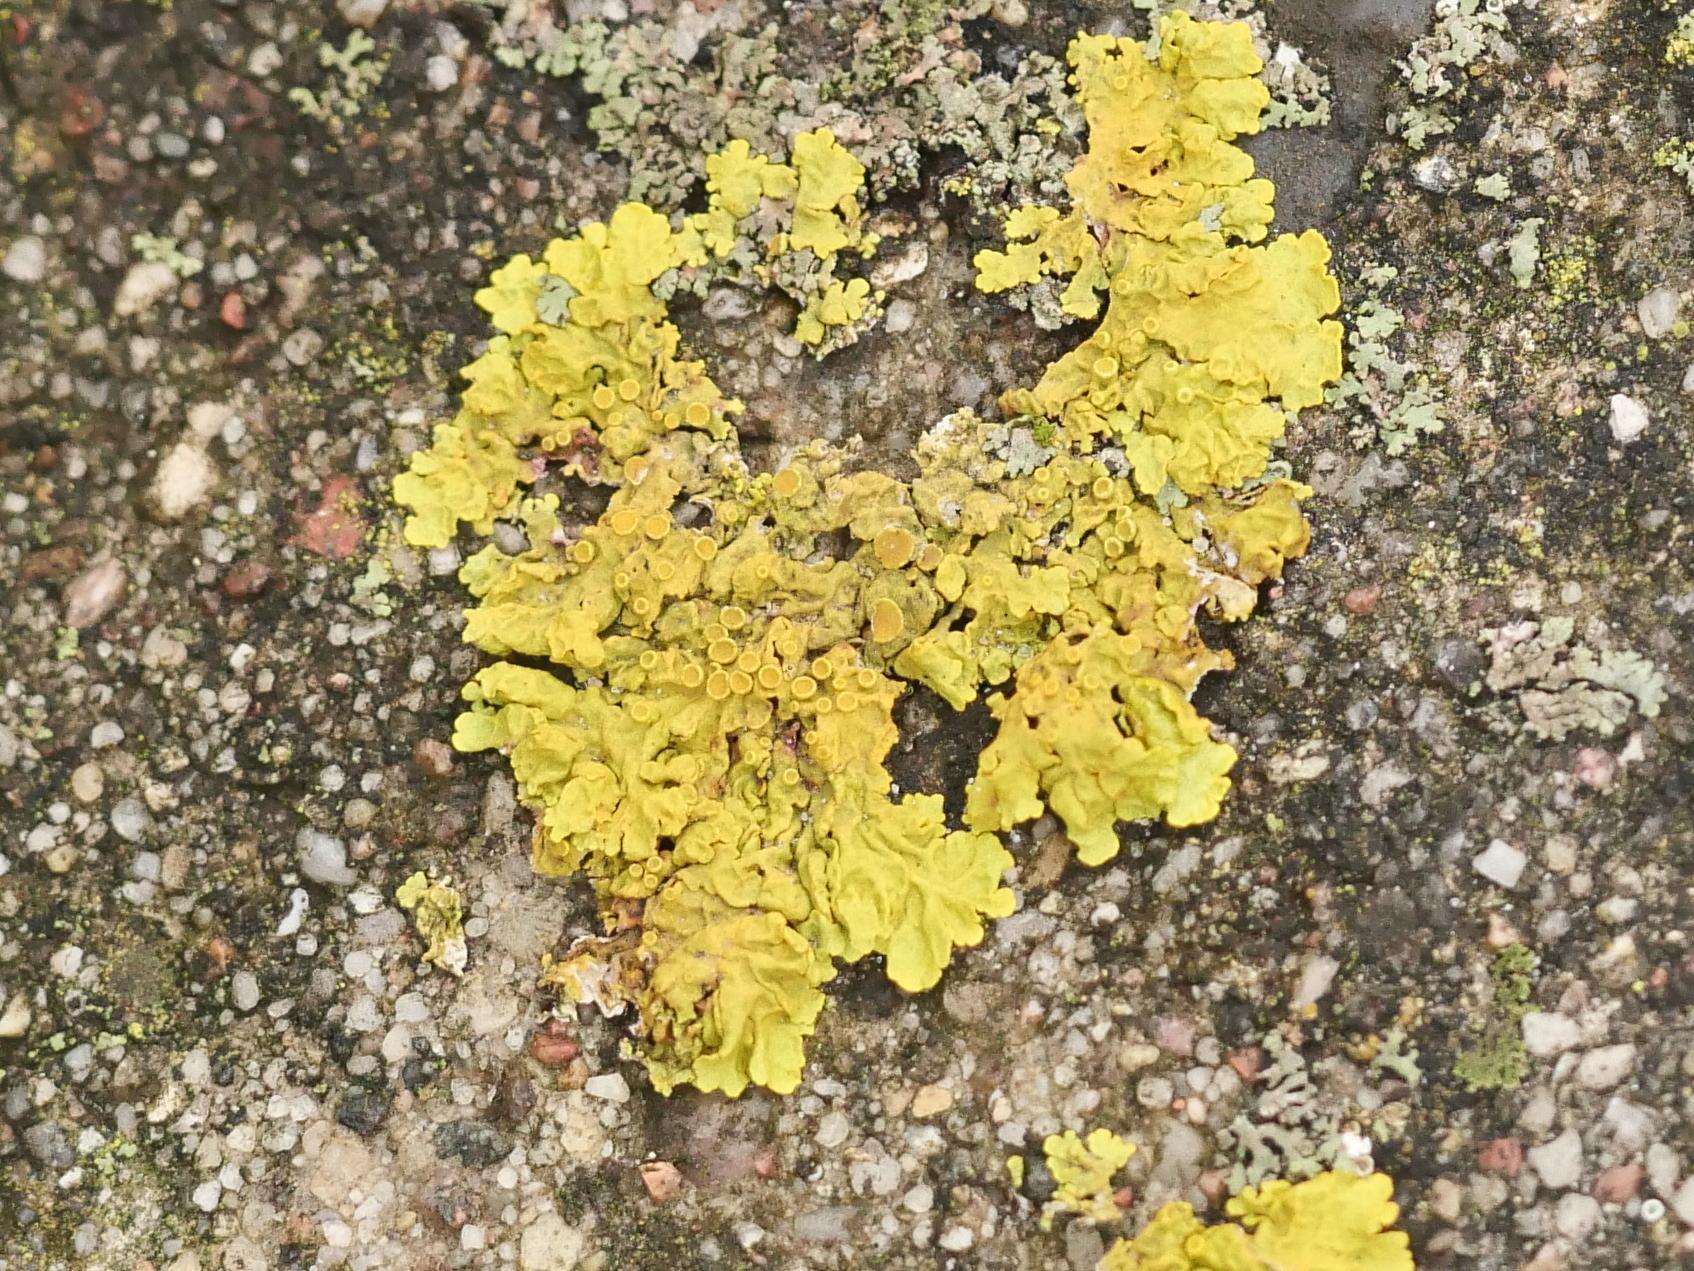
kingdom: Fungi
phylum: Ascomycota
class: Lecanoromycetes
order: Teloschistales
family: Teloschistaceae
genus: Xanthoria
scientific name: Xanthoria parietina
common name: Common orange lichen
